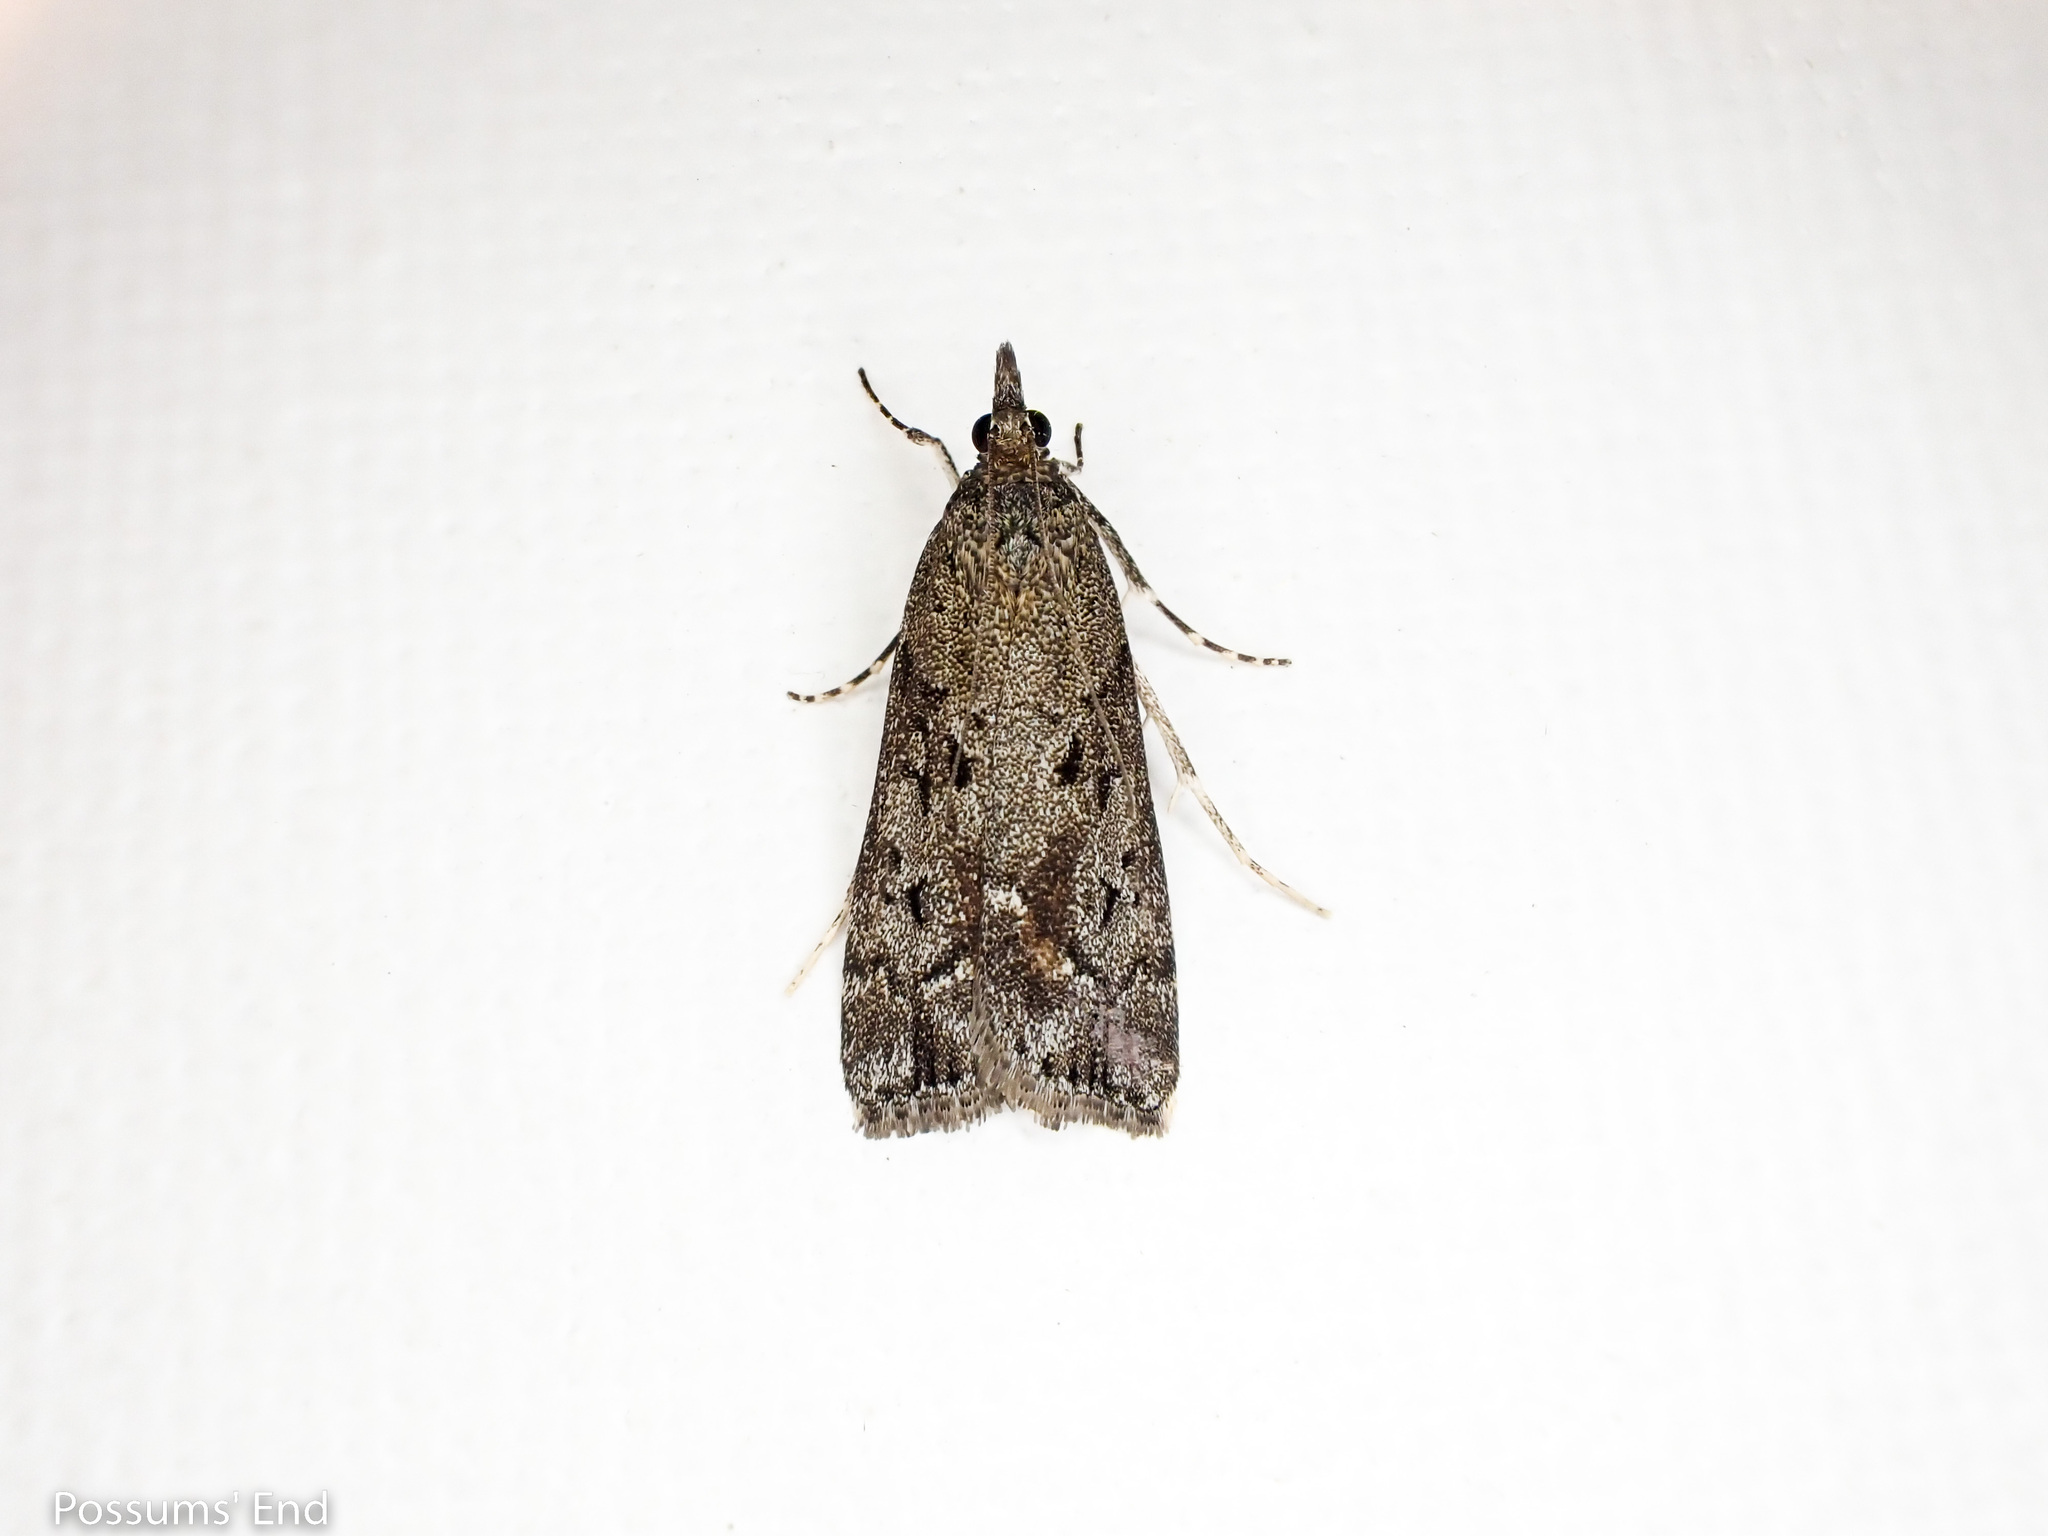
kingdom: Animalia
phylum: Arthropoda
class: Insecta
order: Lepidoptera
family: Crambidae
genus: Eudonia
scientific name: Eudonia submarginalis
